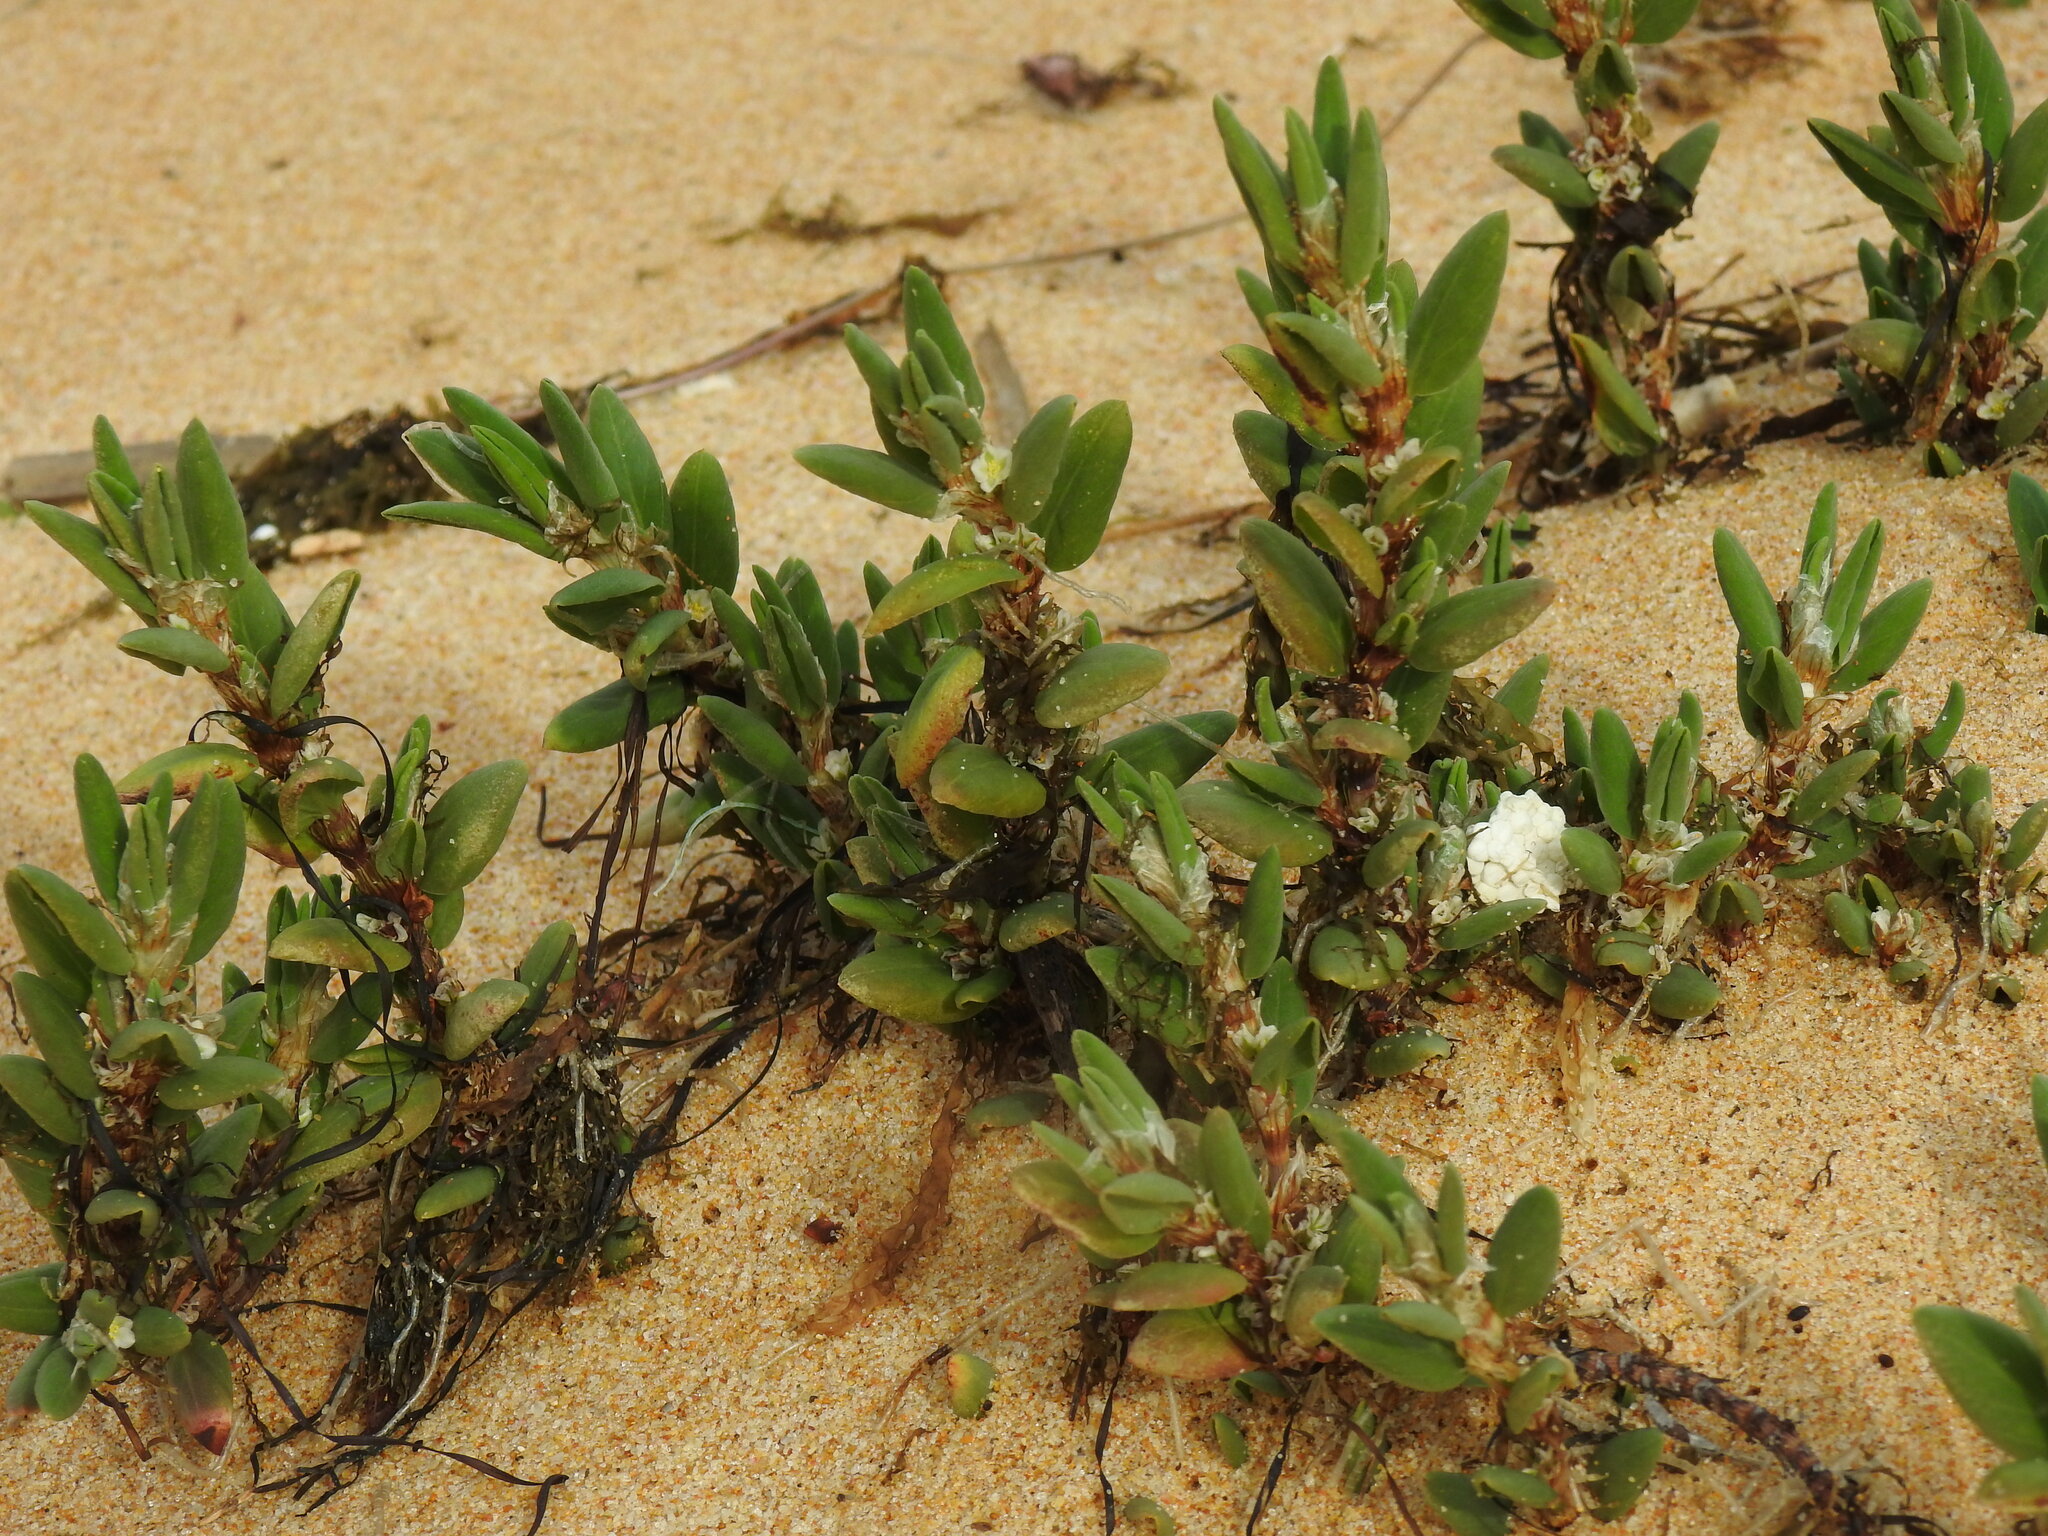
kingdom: Plantae
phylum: Tracheophyta
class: Magnoliopsida
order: Caryophyllales
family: Polygonaceae
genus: Polygonum
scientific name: Polygonum maritimum
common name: Sea knotgrass
